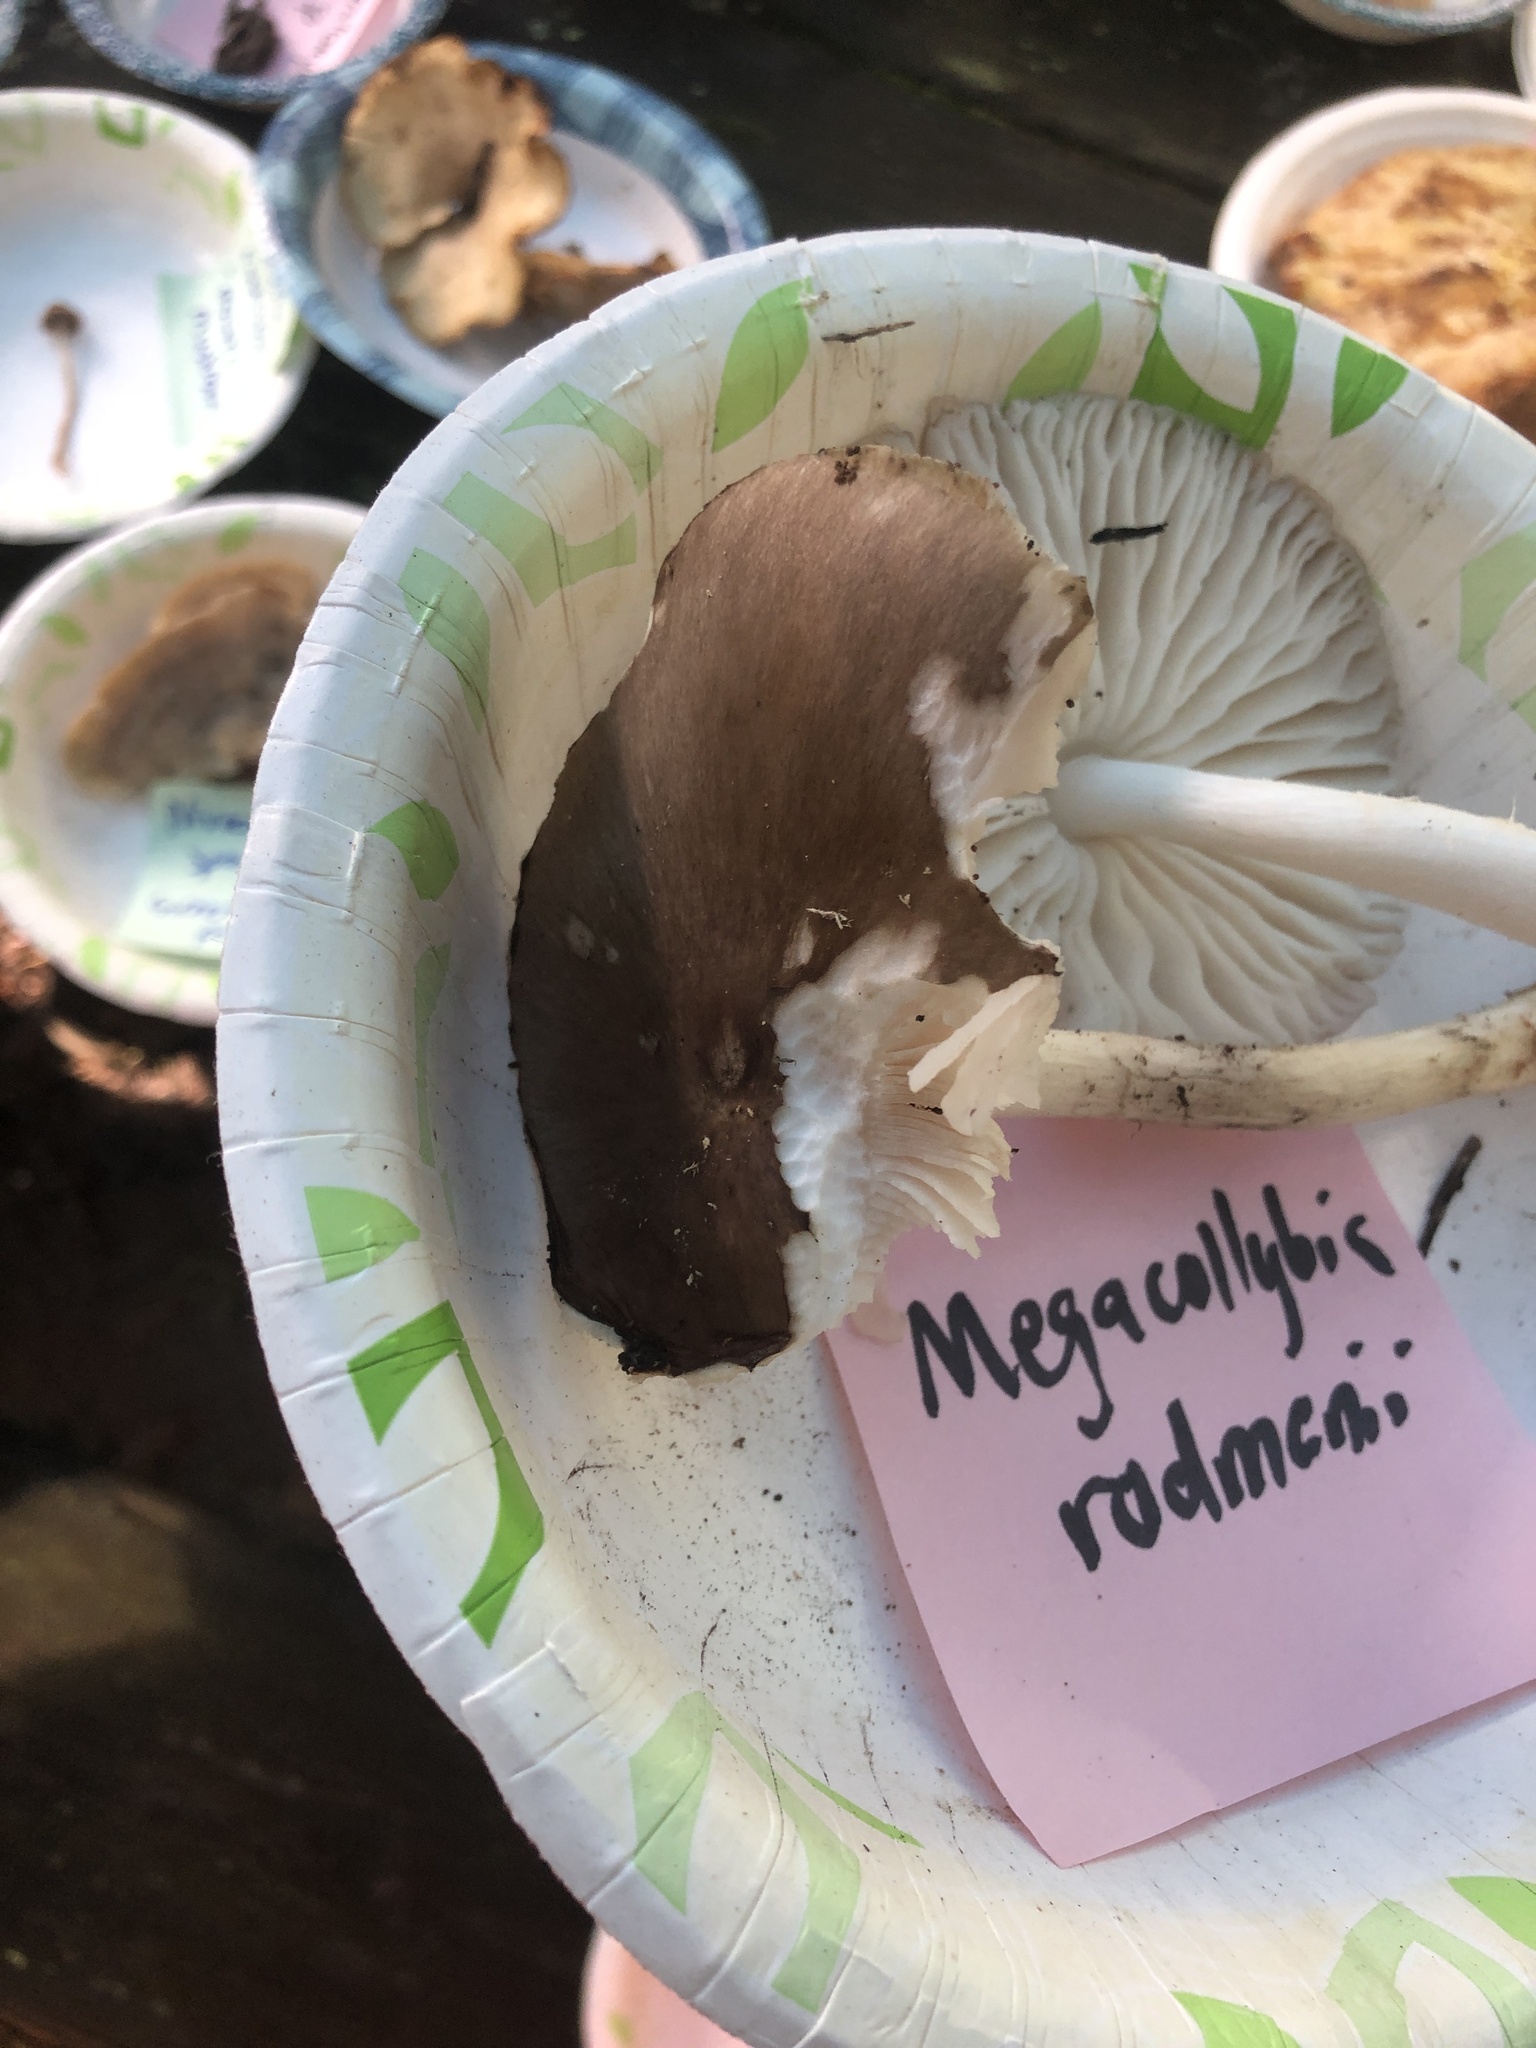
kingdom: Fungi
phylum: Basidiomycota
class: Agaricomycetes
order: Agaricales
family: Tricholomataceae
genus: Megacollybia
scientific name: Megacollybia rodmanii
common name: Eastern american platterful mushroom
